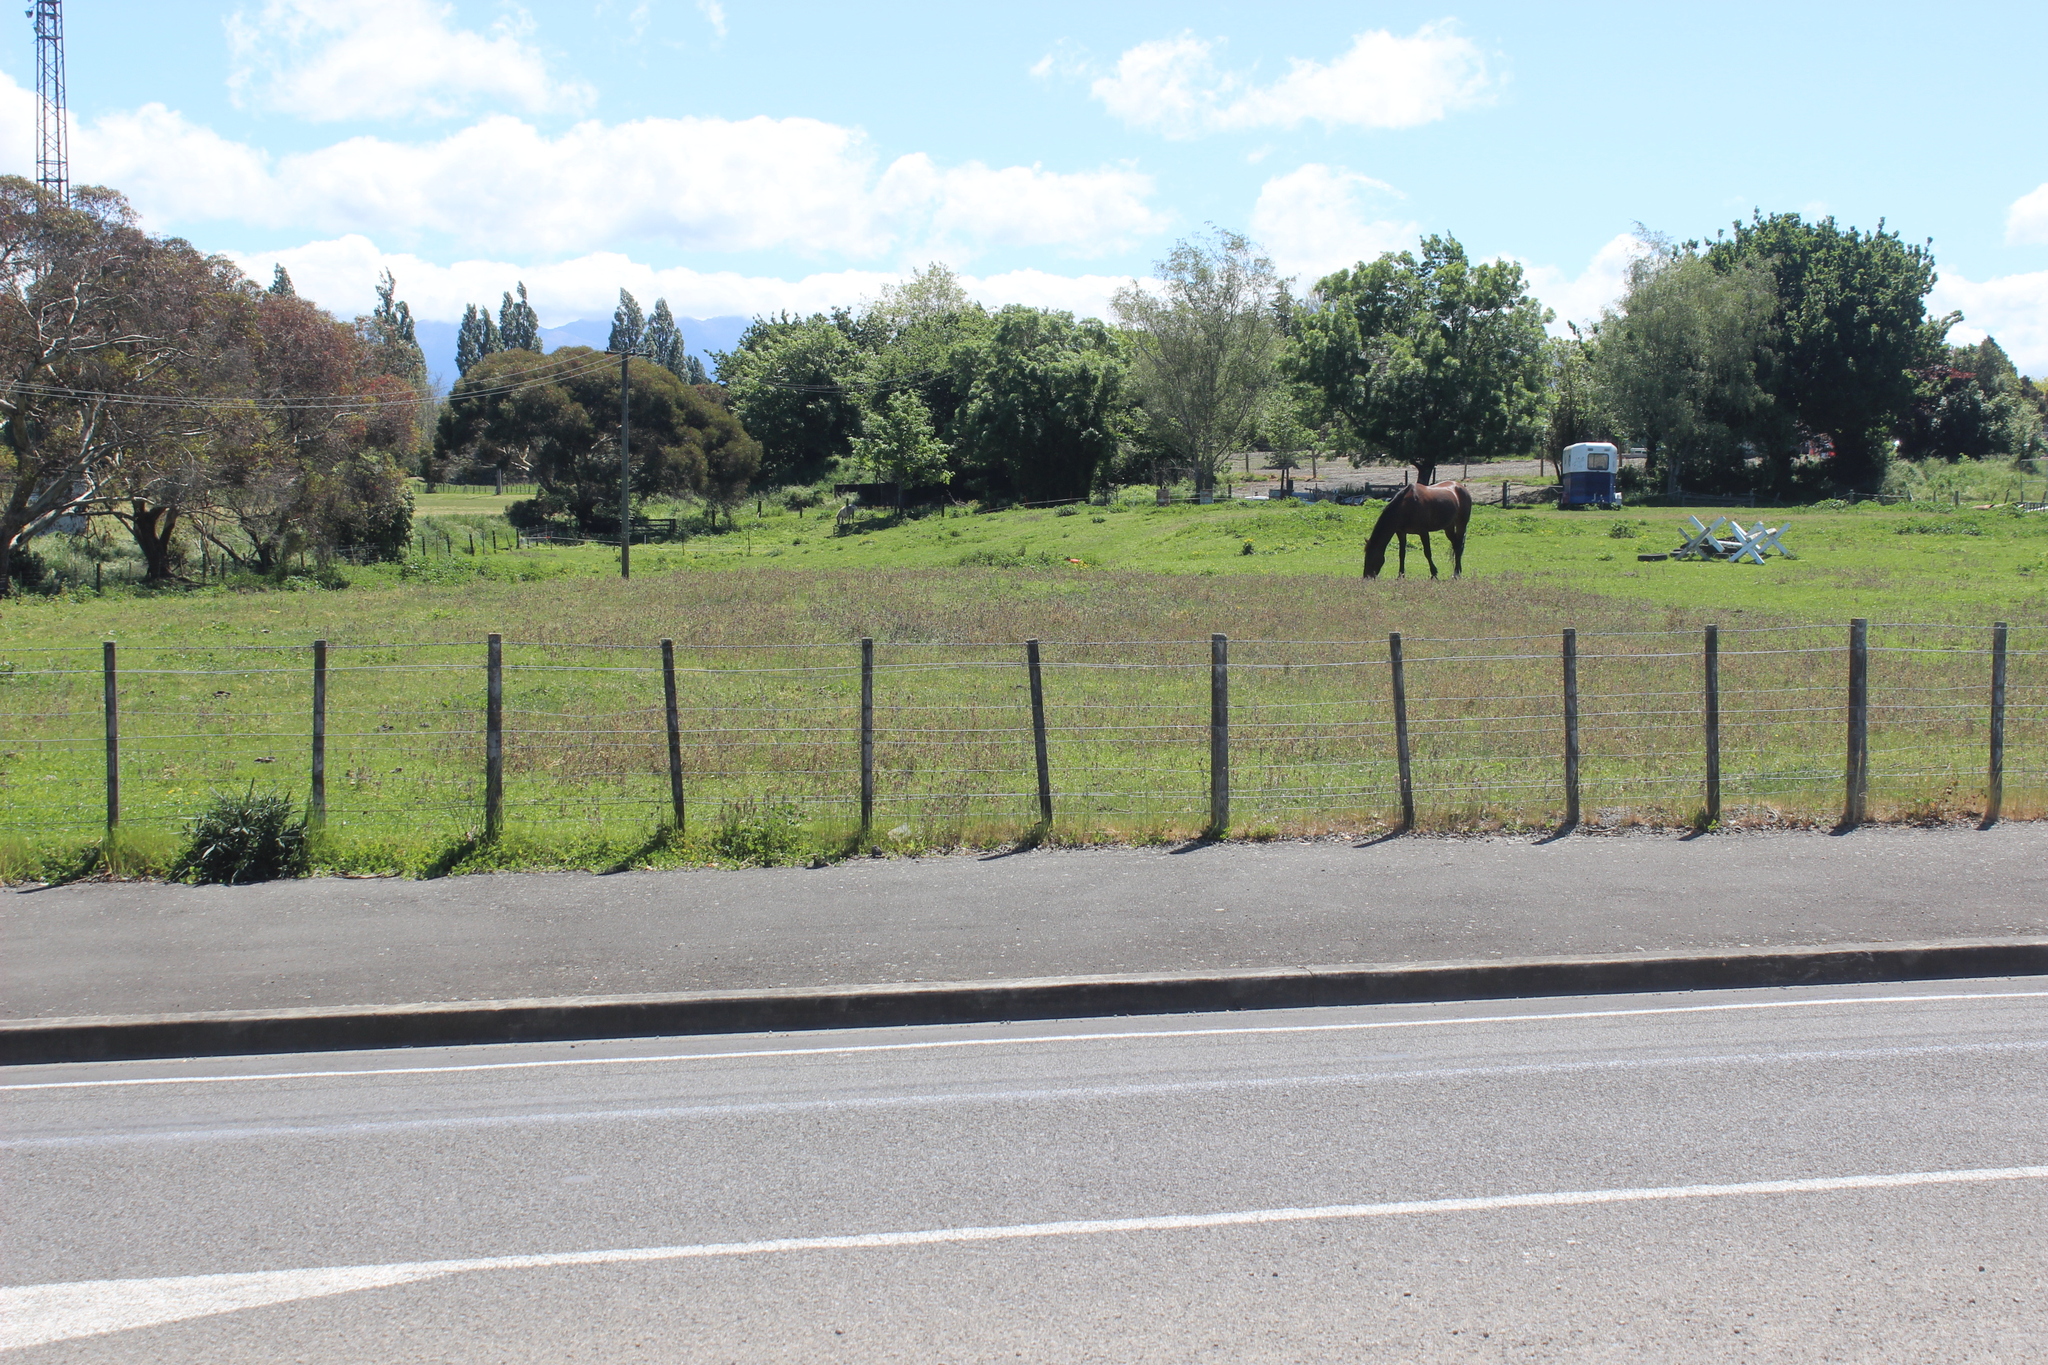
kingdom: Plantae
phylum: Tracheophyta
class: Magnoliopsida
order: Lamiales
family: Orobanchaceae
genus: Parentucellia
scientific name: Parentucellia latifolia
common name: Broadleaf glandweed
